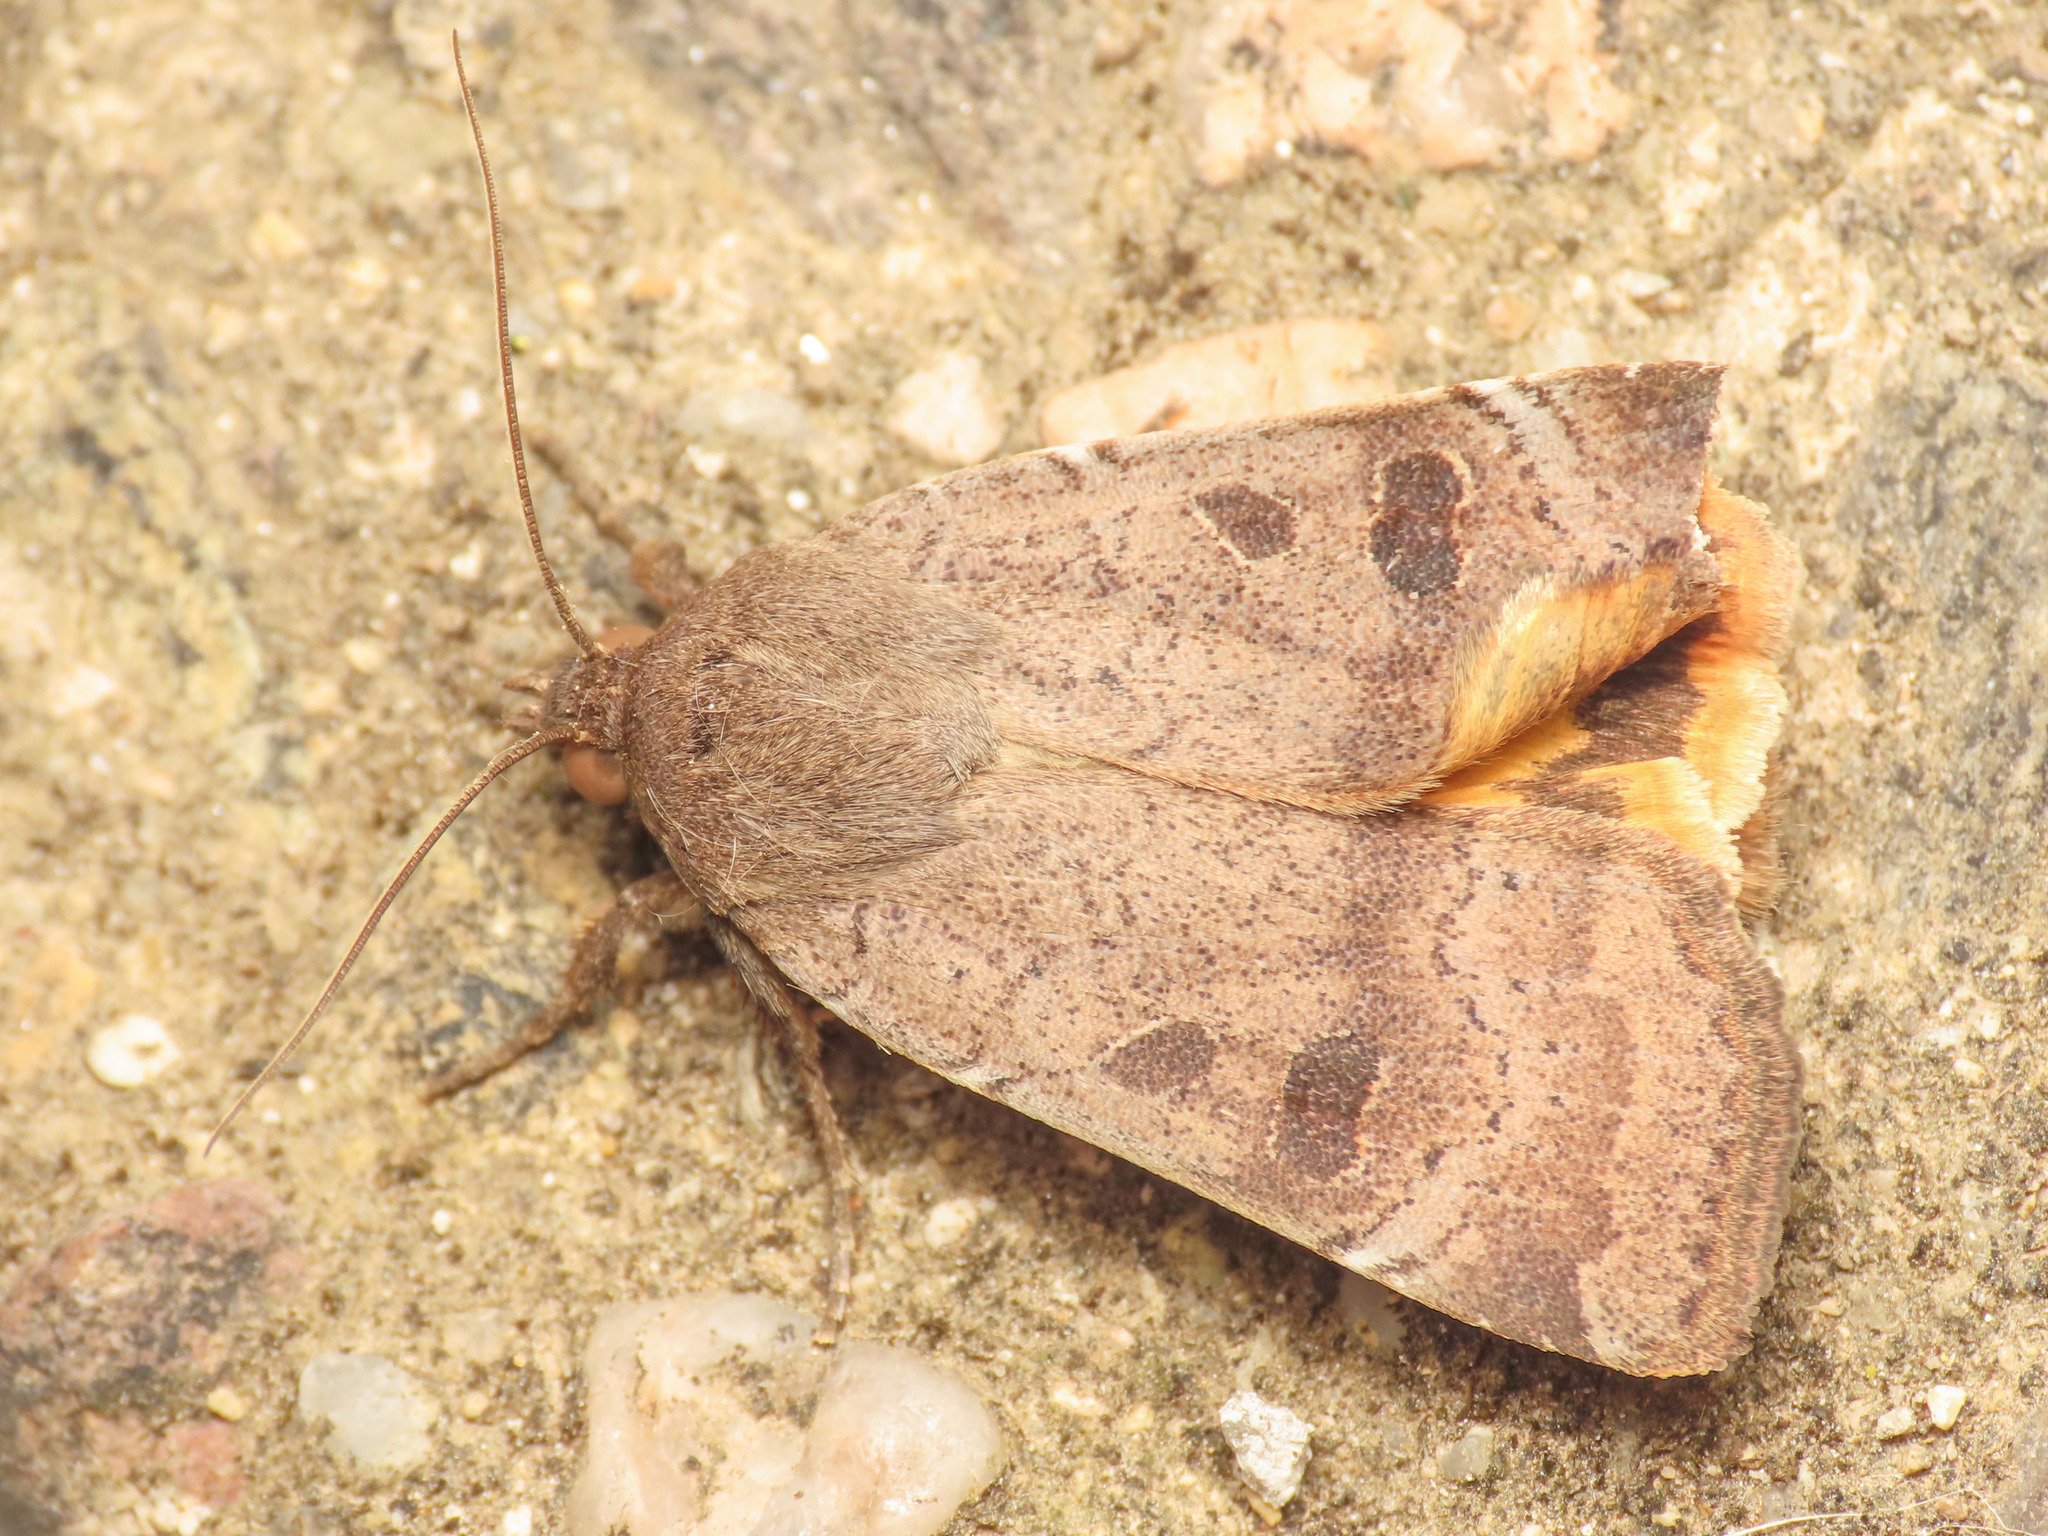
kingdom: Animalia
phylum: Arthropoda
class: Insecta
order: Lepidoptera
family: Noctuidae
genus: Noctua
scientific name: Noctua comes
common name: Lesser yellow underwing
